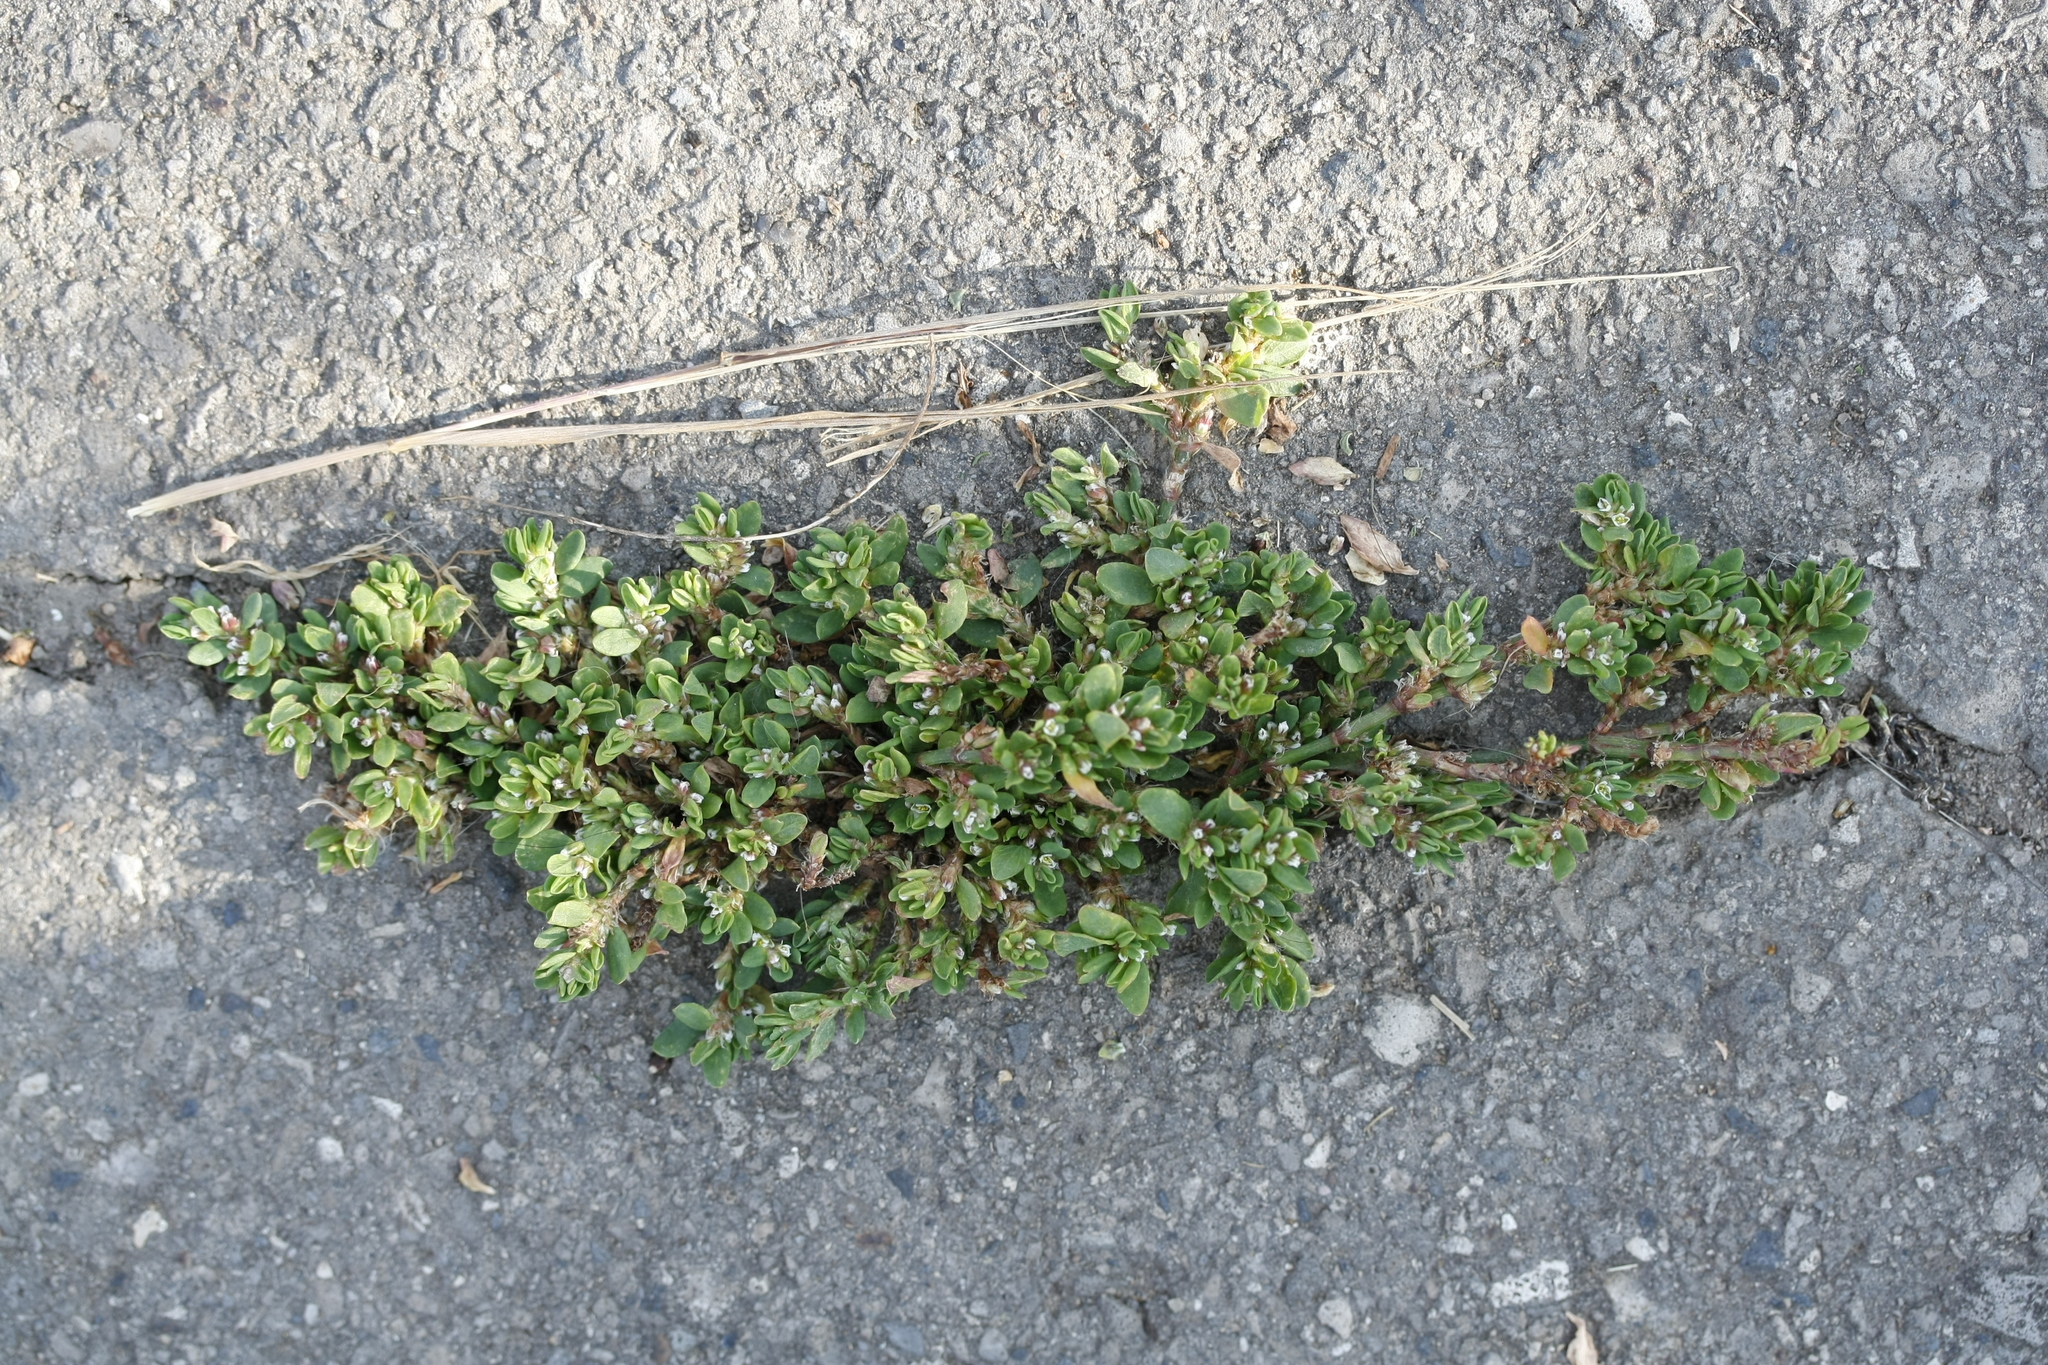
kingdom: Plantae
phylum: Tracheophyta
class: Magnoliopsida
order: Caryophyllales
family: Polygonaceae
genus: Polygonum
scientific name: Polygonum arenastrum
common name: Equal-leaved knotgrass
